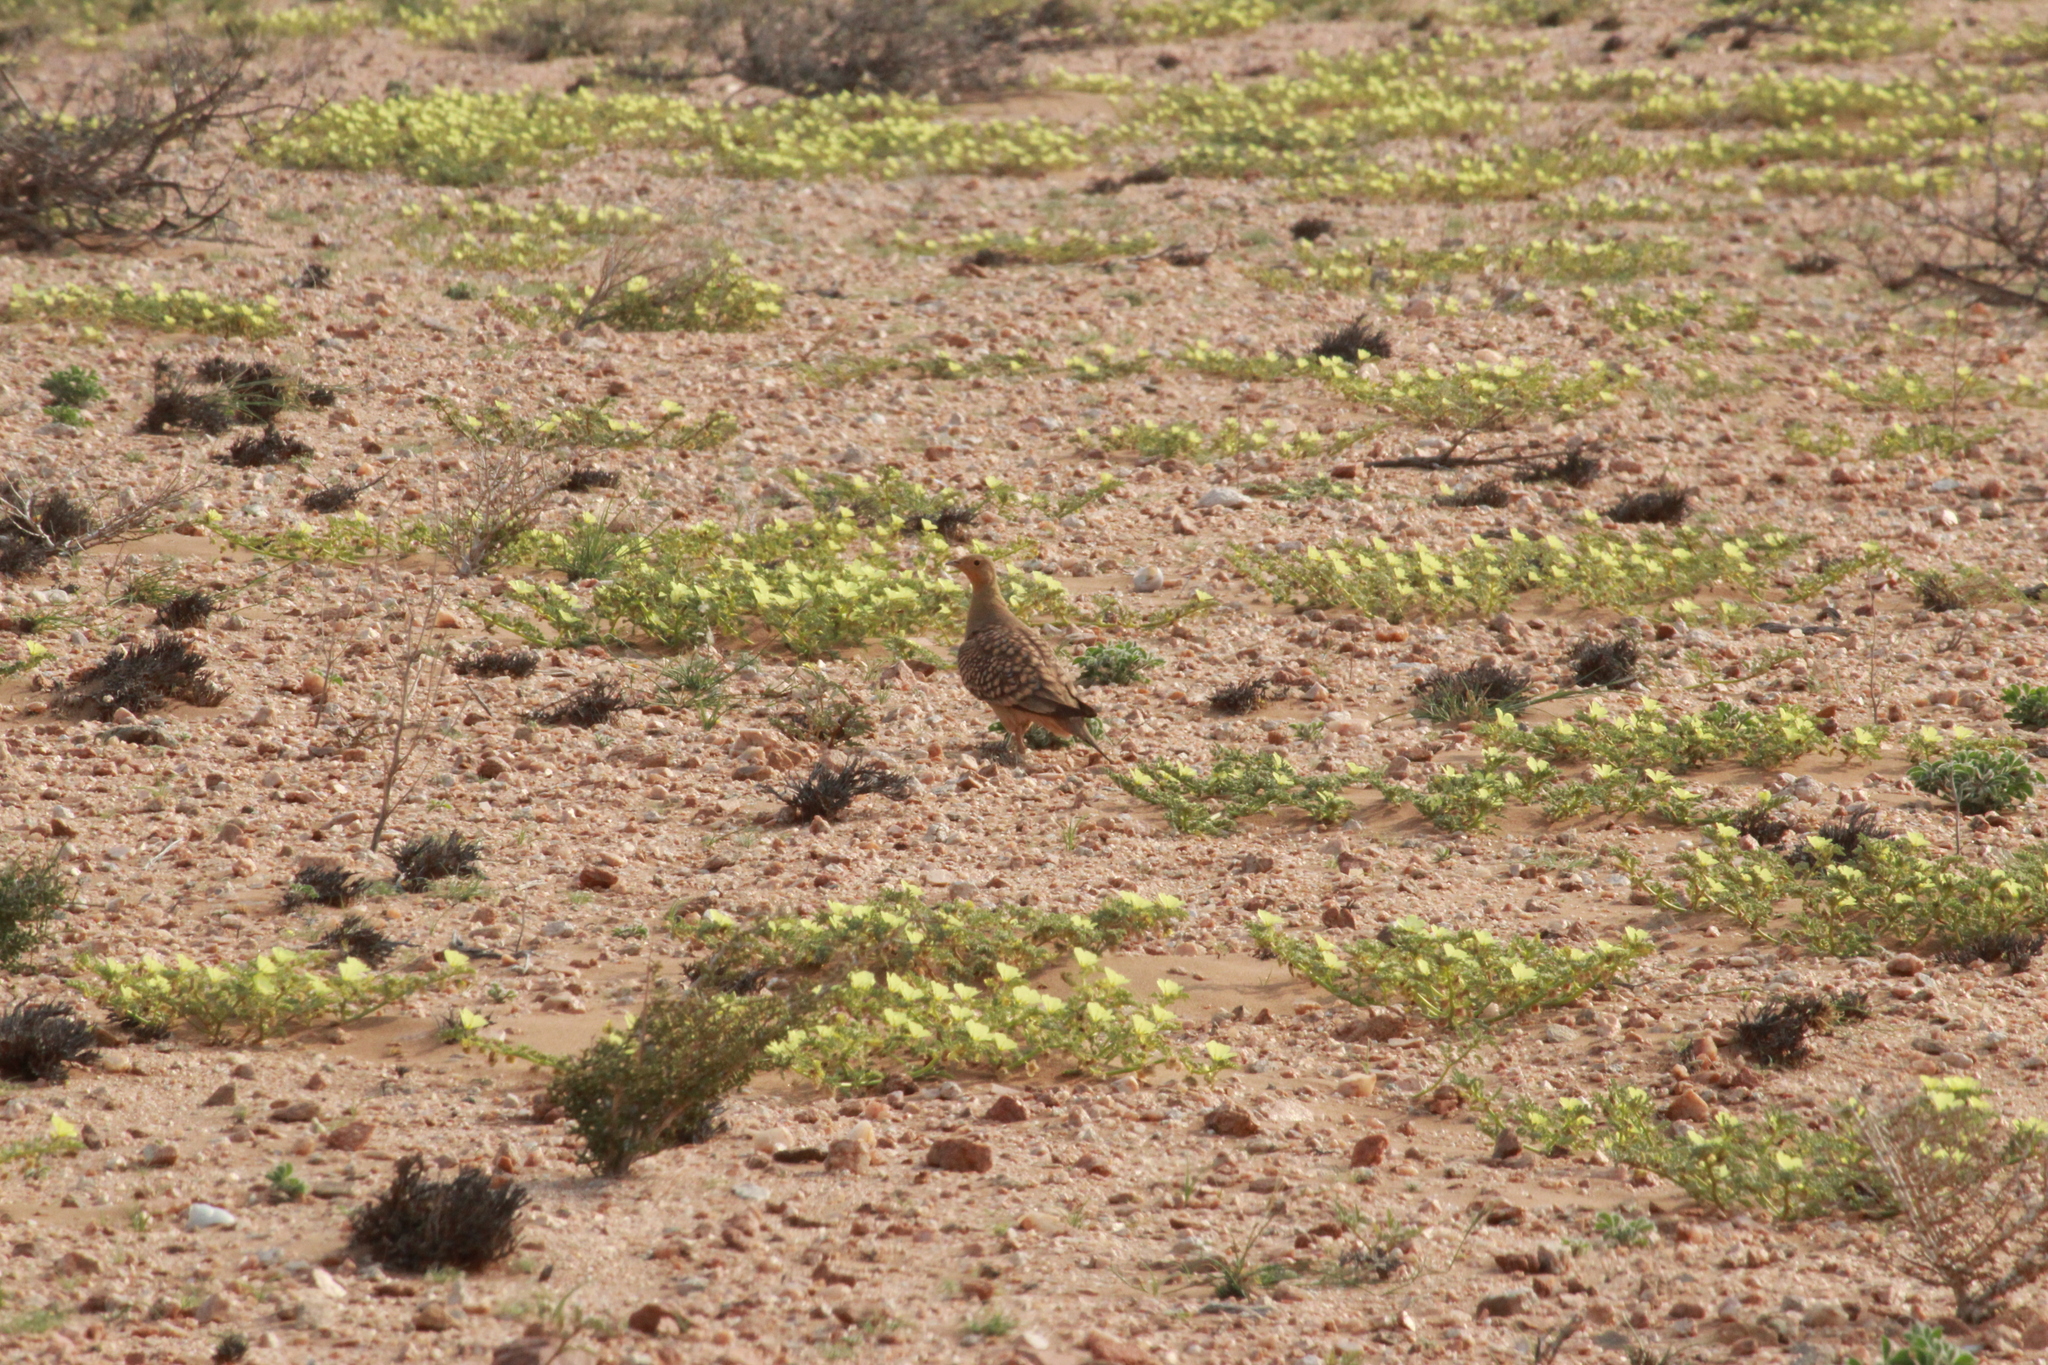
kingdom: Animalia
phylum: Chordata
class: Aves
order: Pteroclidiformes
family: Pteroclididae
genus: Pterocles
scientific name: Pterocles namaqua
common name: Namaqua sandgrouse
